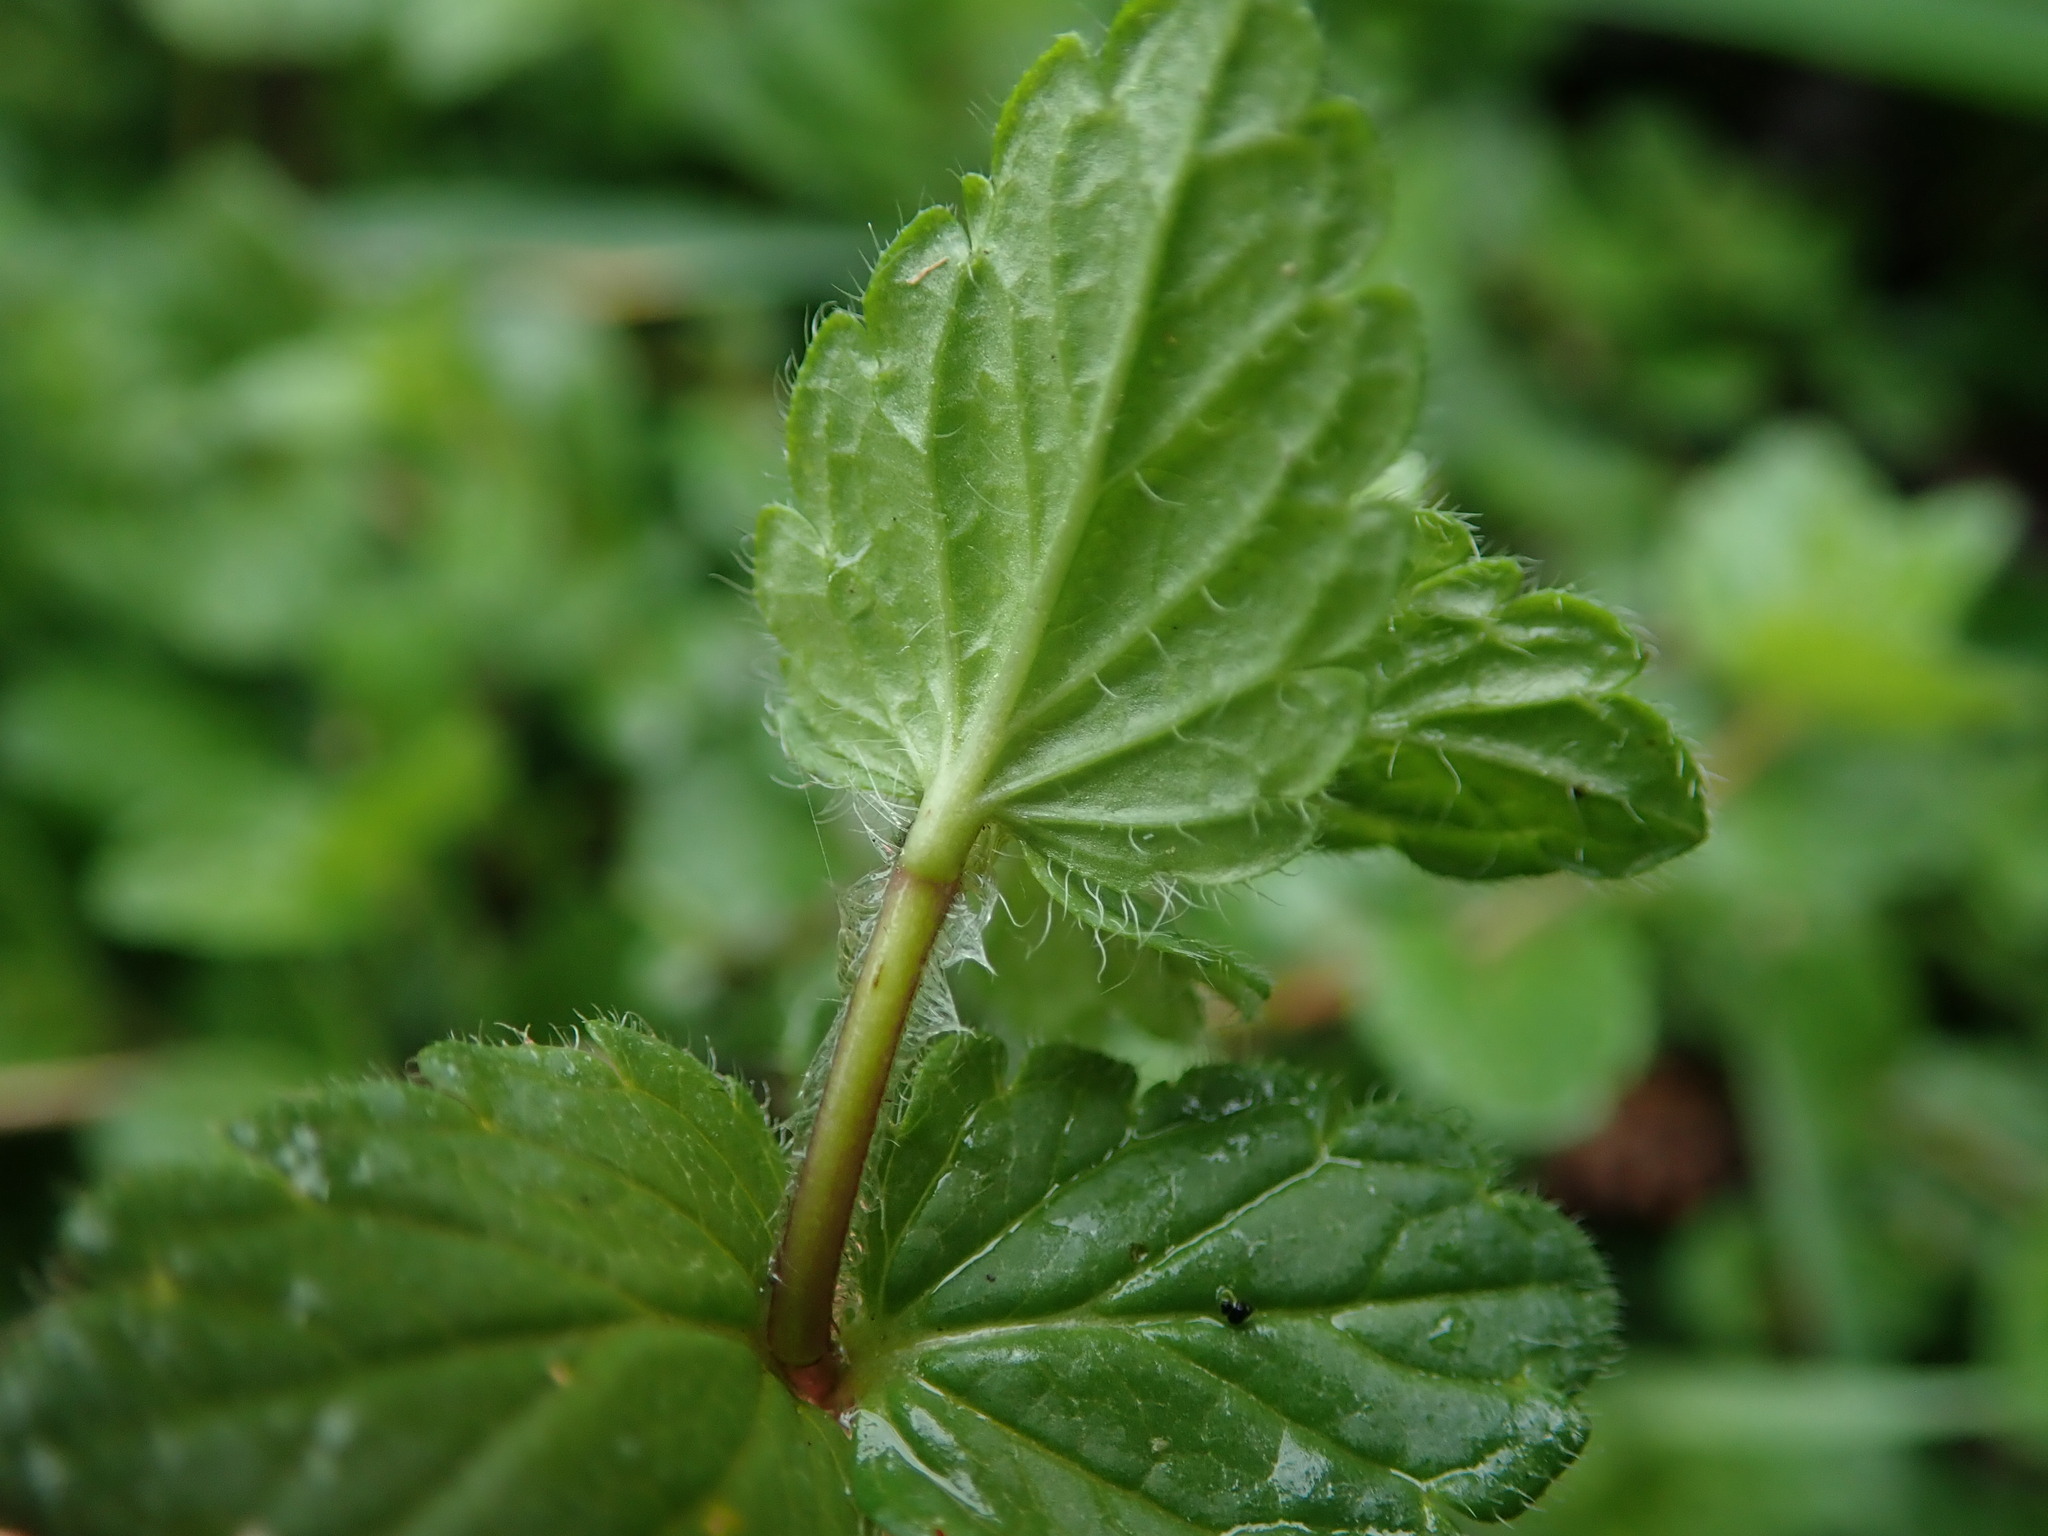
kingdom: Plantae
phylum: Tracheophyta
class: Magnoliopsida
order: Lamiales
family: Plantaginaceae
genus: Veronica
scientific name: Veronica chamaedrys
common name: Germander speedwell
